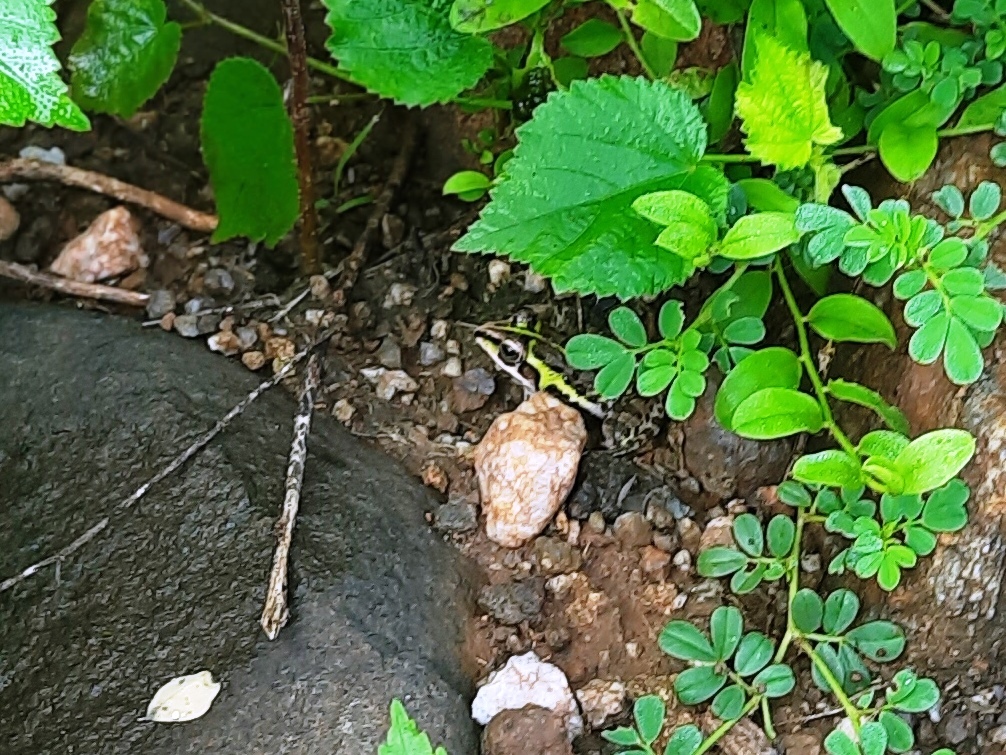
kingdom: Animalia
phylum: Chordata
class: Amphibia
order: Anura
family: Dicroglossidae
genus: Hoplobatrachus
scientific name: Hoplobatrachus tigerinus
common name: Indian bullfrog
